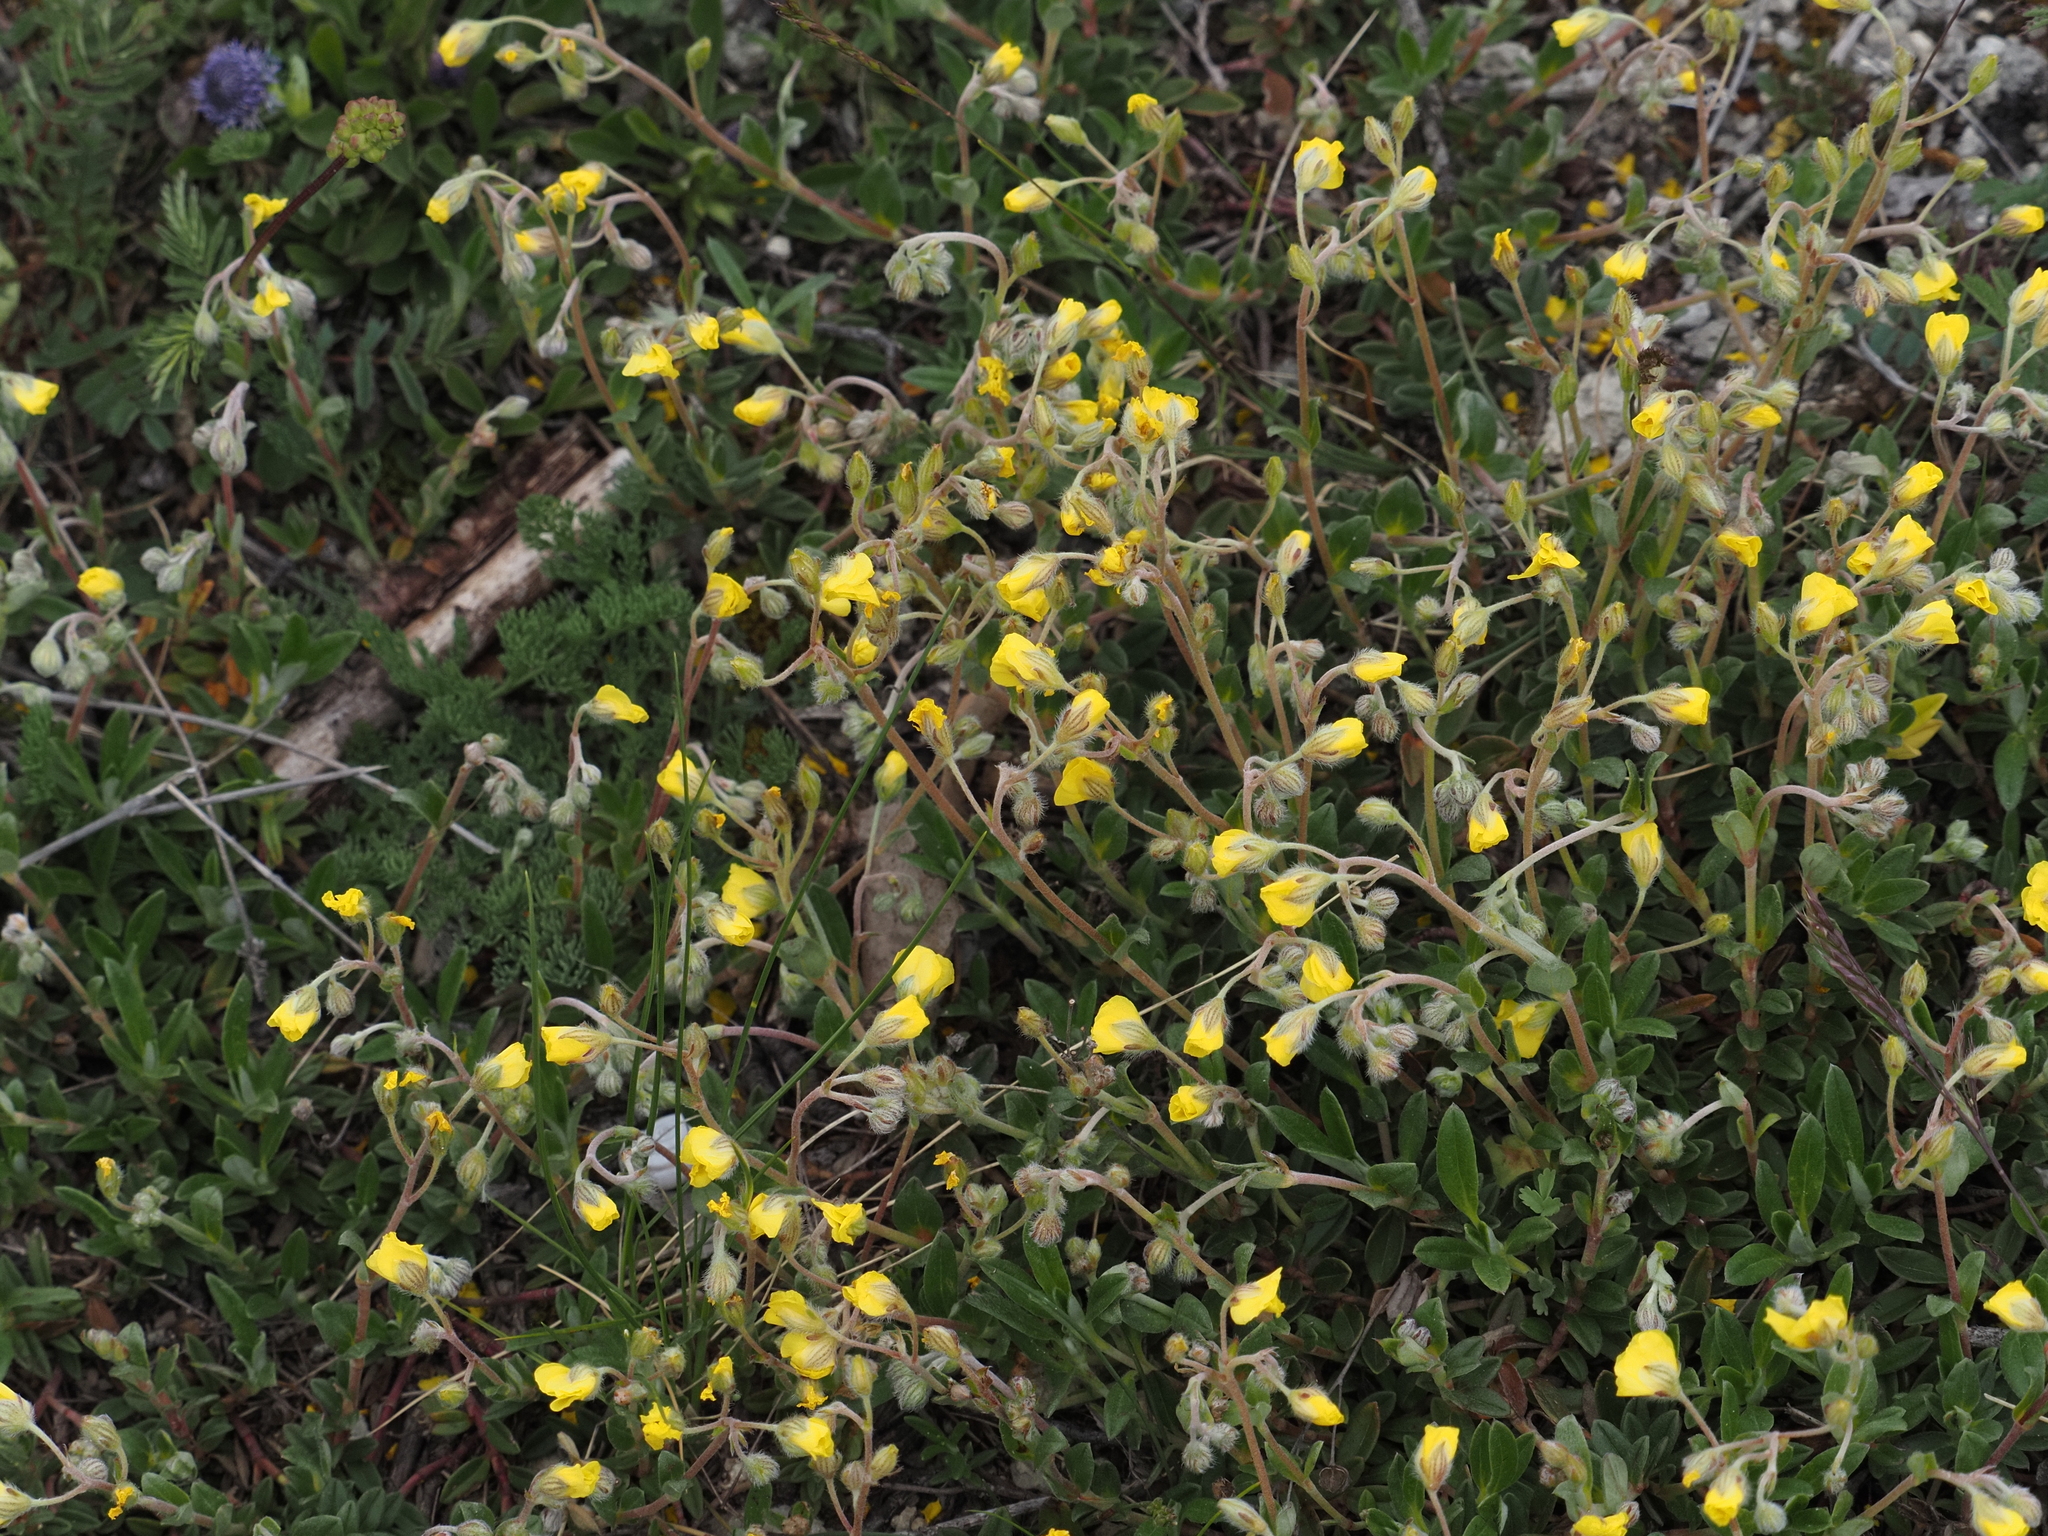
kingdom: Plantae
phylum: Tracheophyta
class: Magnoliopsida
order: Malvales
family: Cistaceae
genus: Helianthemum
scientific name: Helianthemum canum
